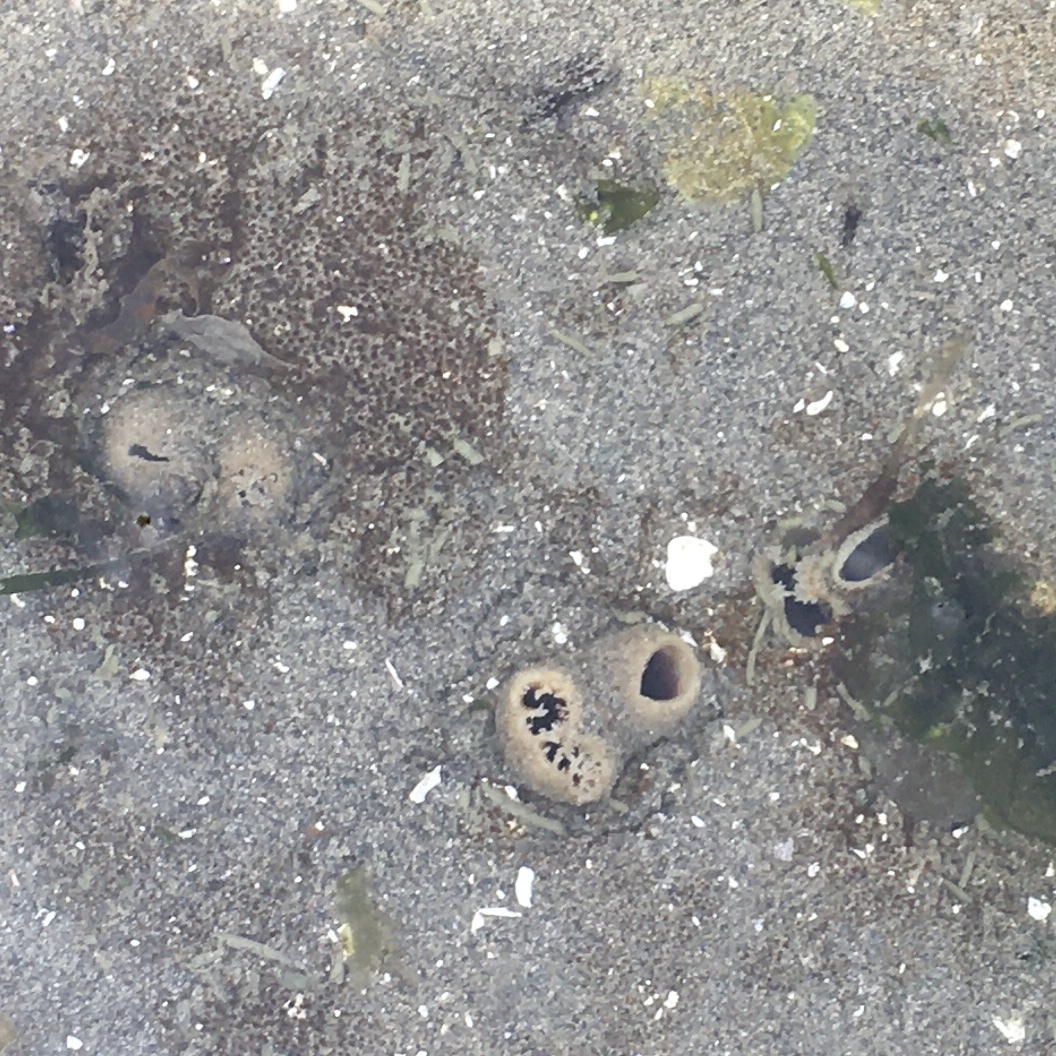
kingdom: Animalia
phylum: Mollusca
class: Bivalvia
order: Myida
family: Pholadidae
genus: Zirfaea
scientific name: Zirfaea pilsbryi
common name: Rough piddock
